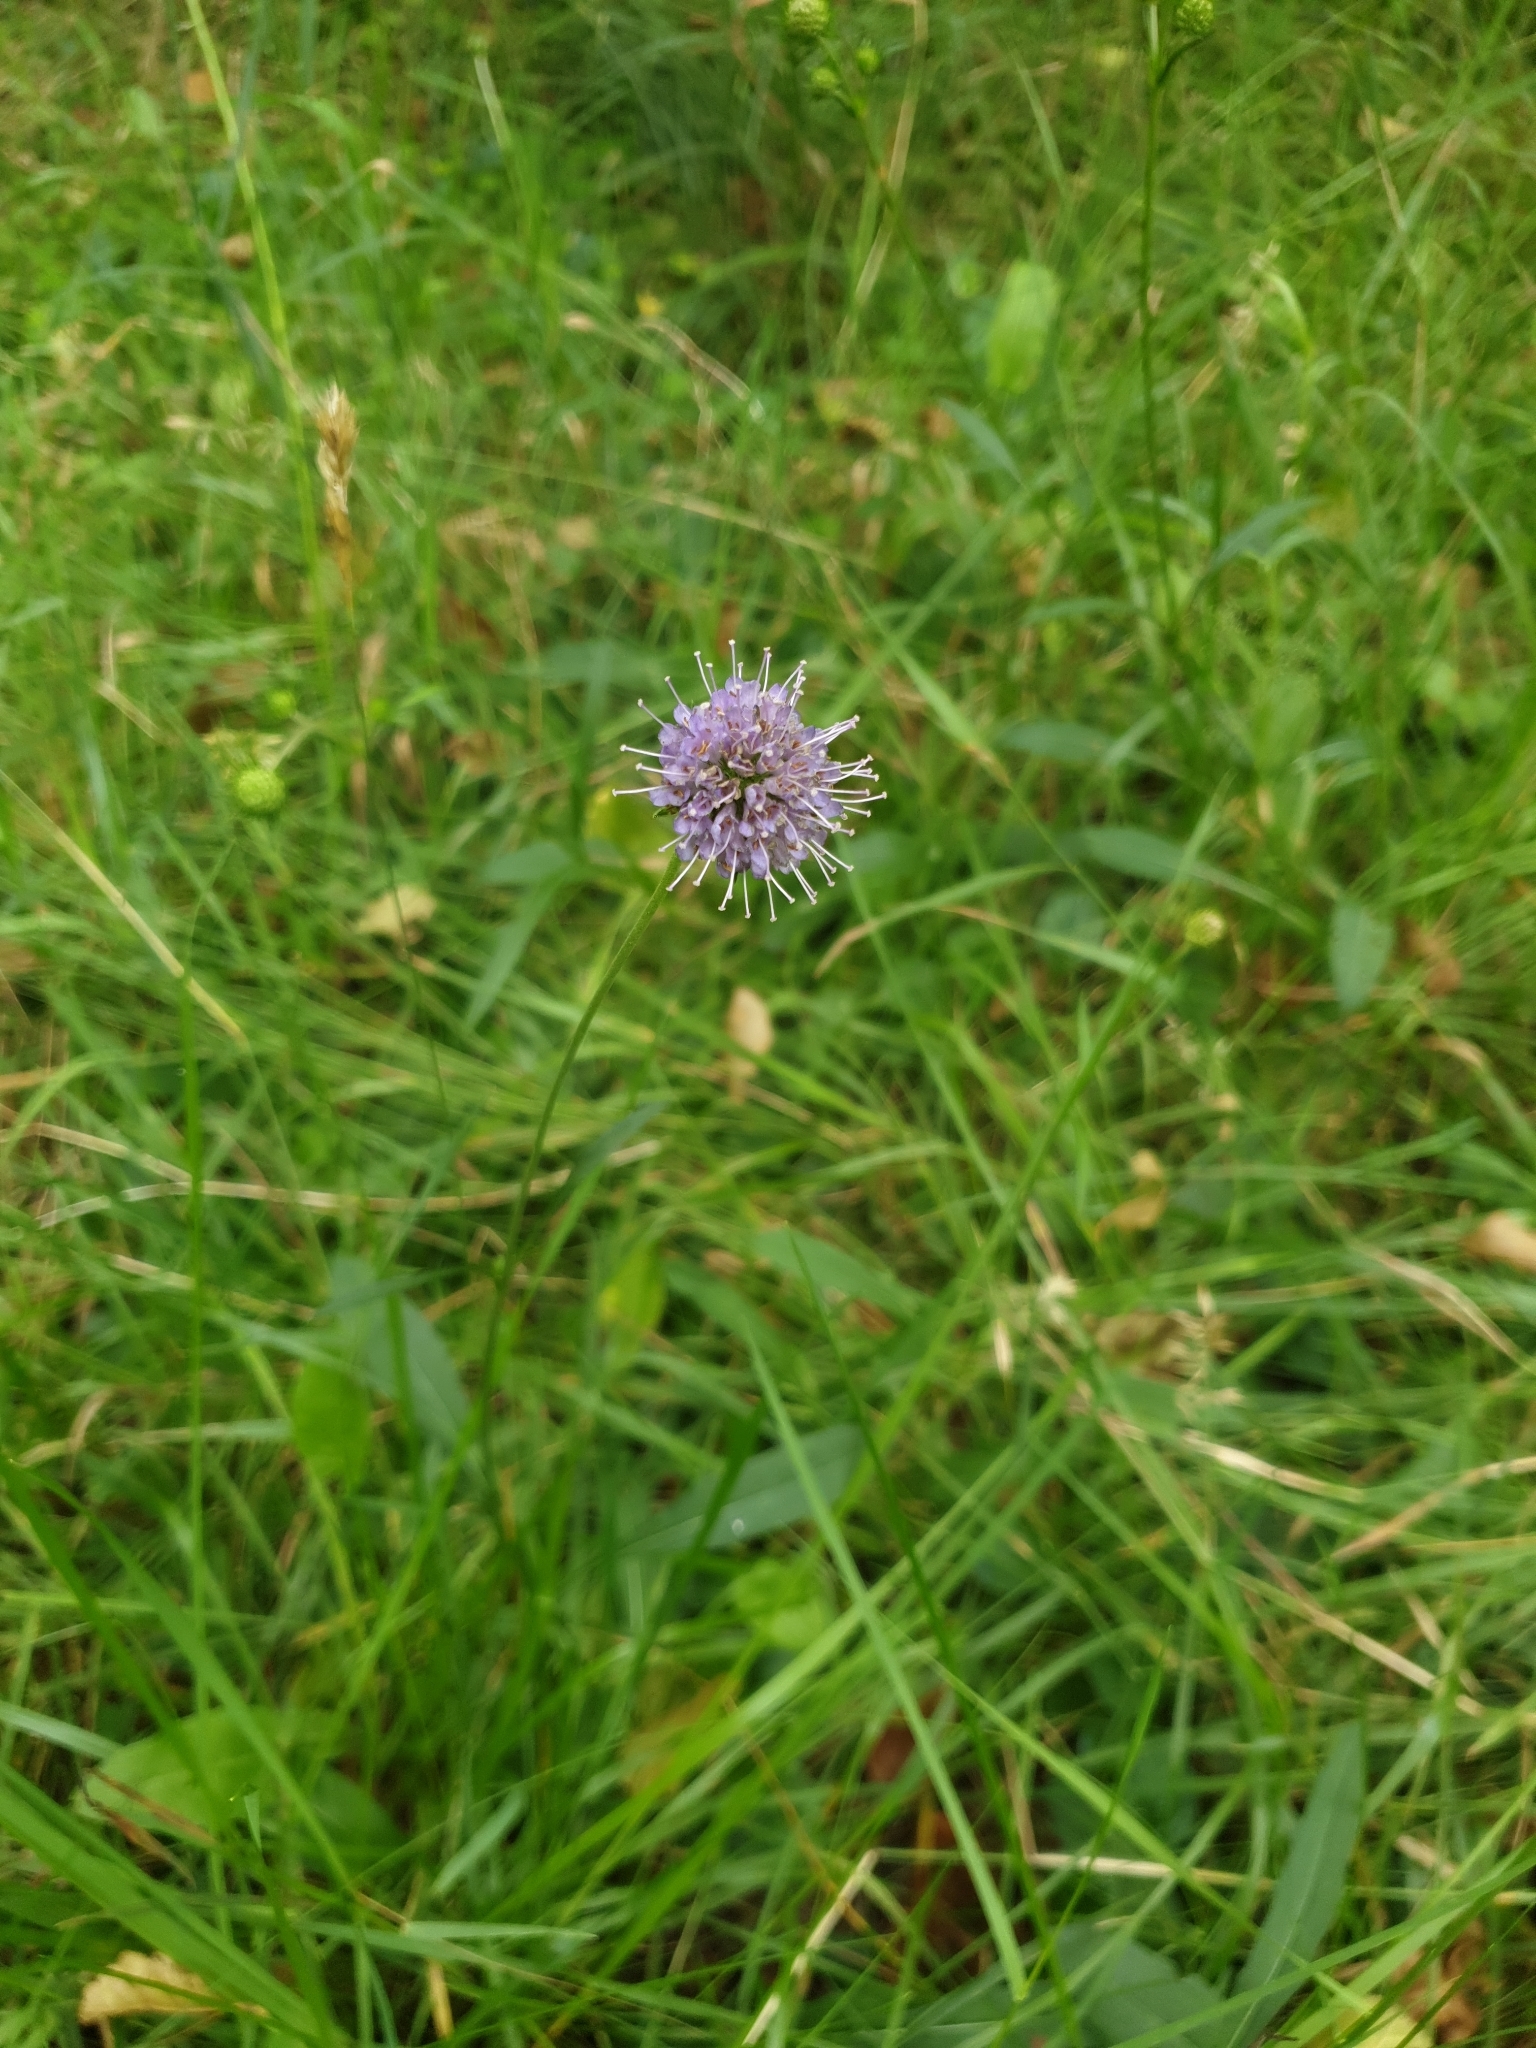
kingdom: Plantae
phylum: Tracheophyta
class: Magnoliopsida
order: Dipsacales
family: Caprifoliaceae
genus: Succisa
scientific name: Succisa pratensis
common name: Devil's-bit
